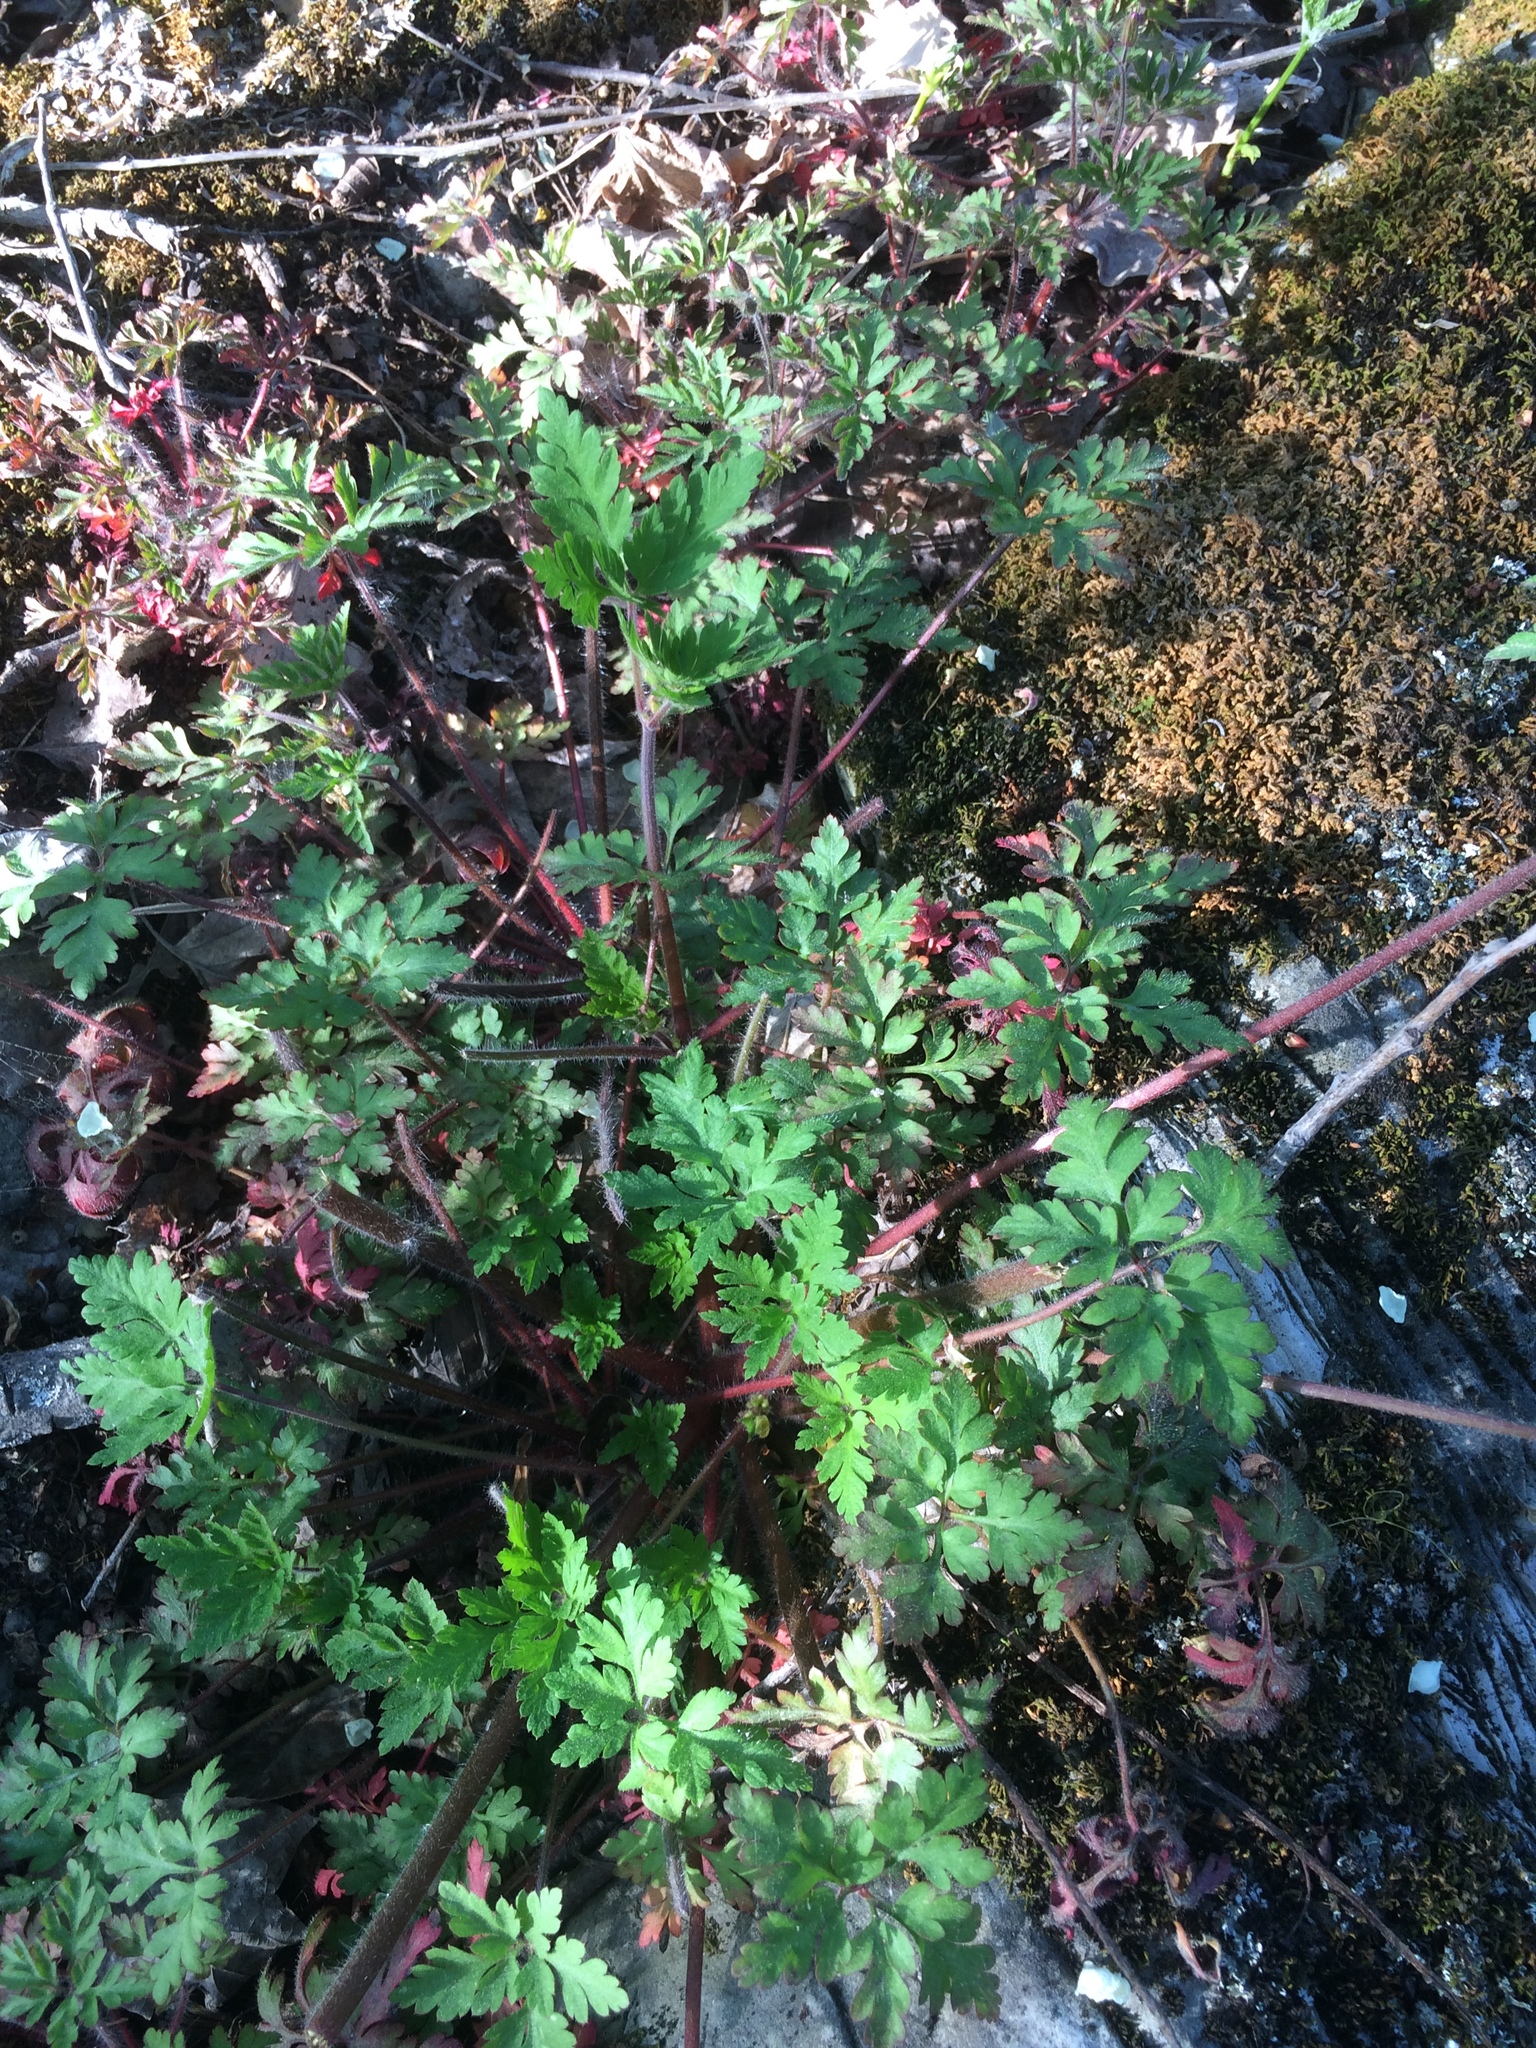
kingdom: Plantae
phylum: Tracheophyta
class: Magnoliopsida
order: Geraniales
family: Geraniaceae
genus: Geranium
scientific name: Geranium robertianum
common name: Herb-robert
